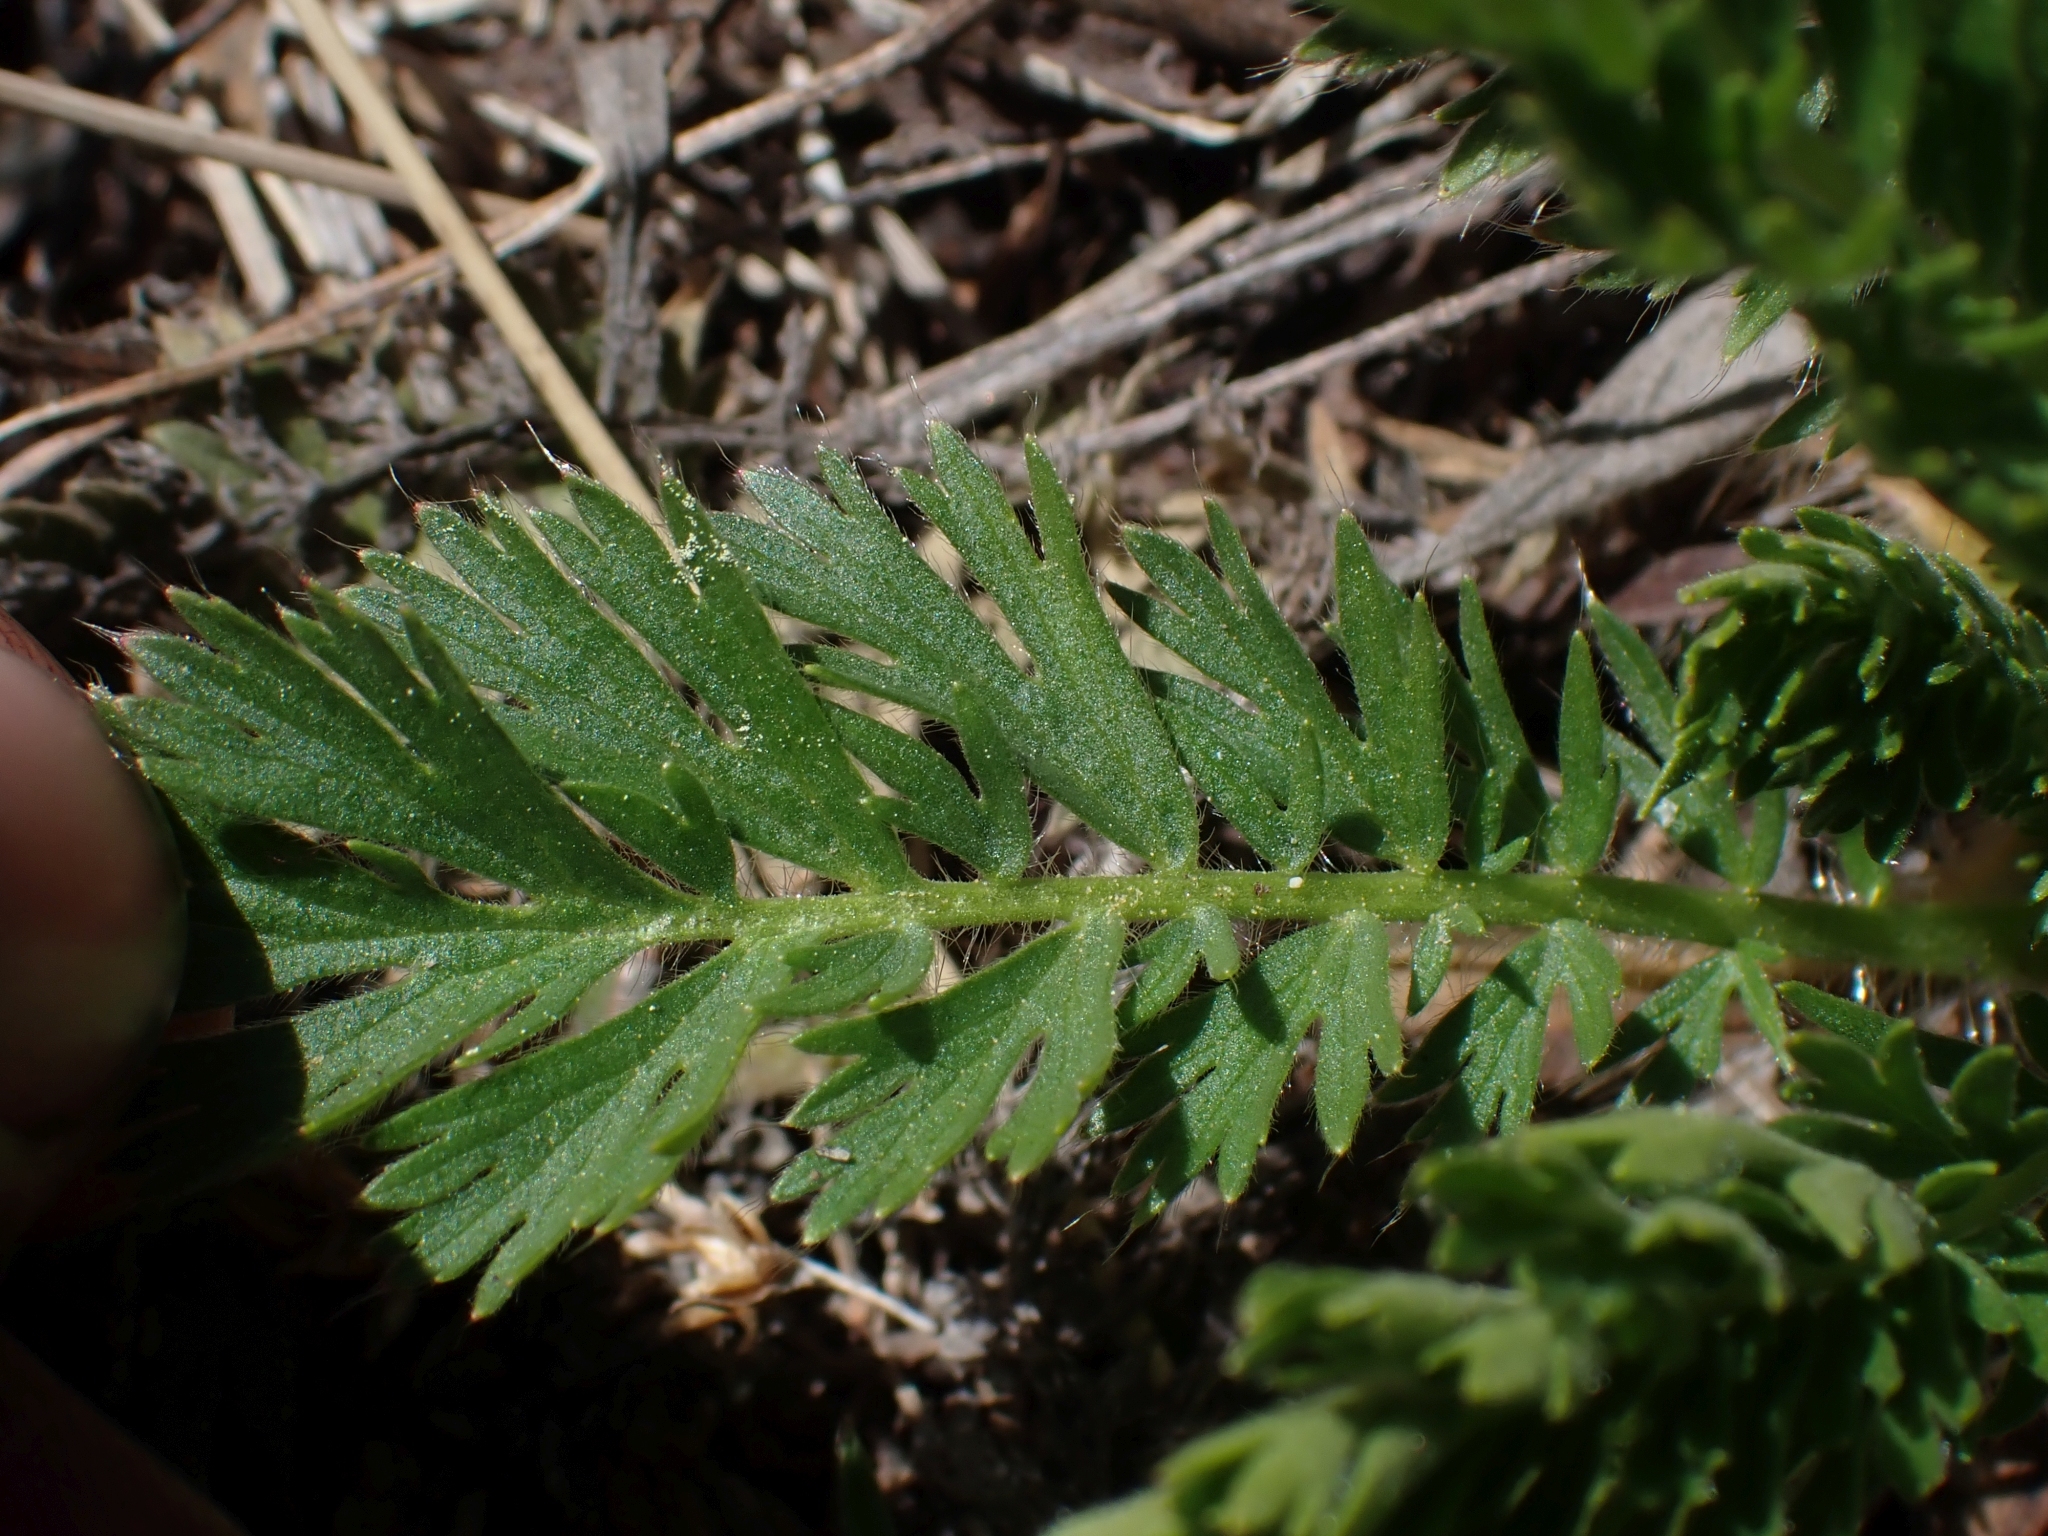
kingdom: Plantae
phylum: Tracheophyta
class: Magnoliopsida
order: Rosales
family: Rosaceae
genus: Geum
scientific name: Geum triflorum
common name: Old man's whiskers
